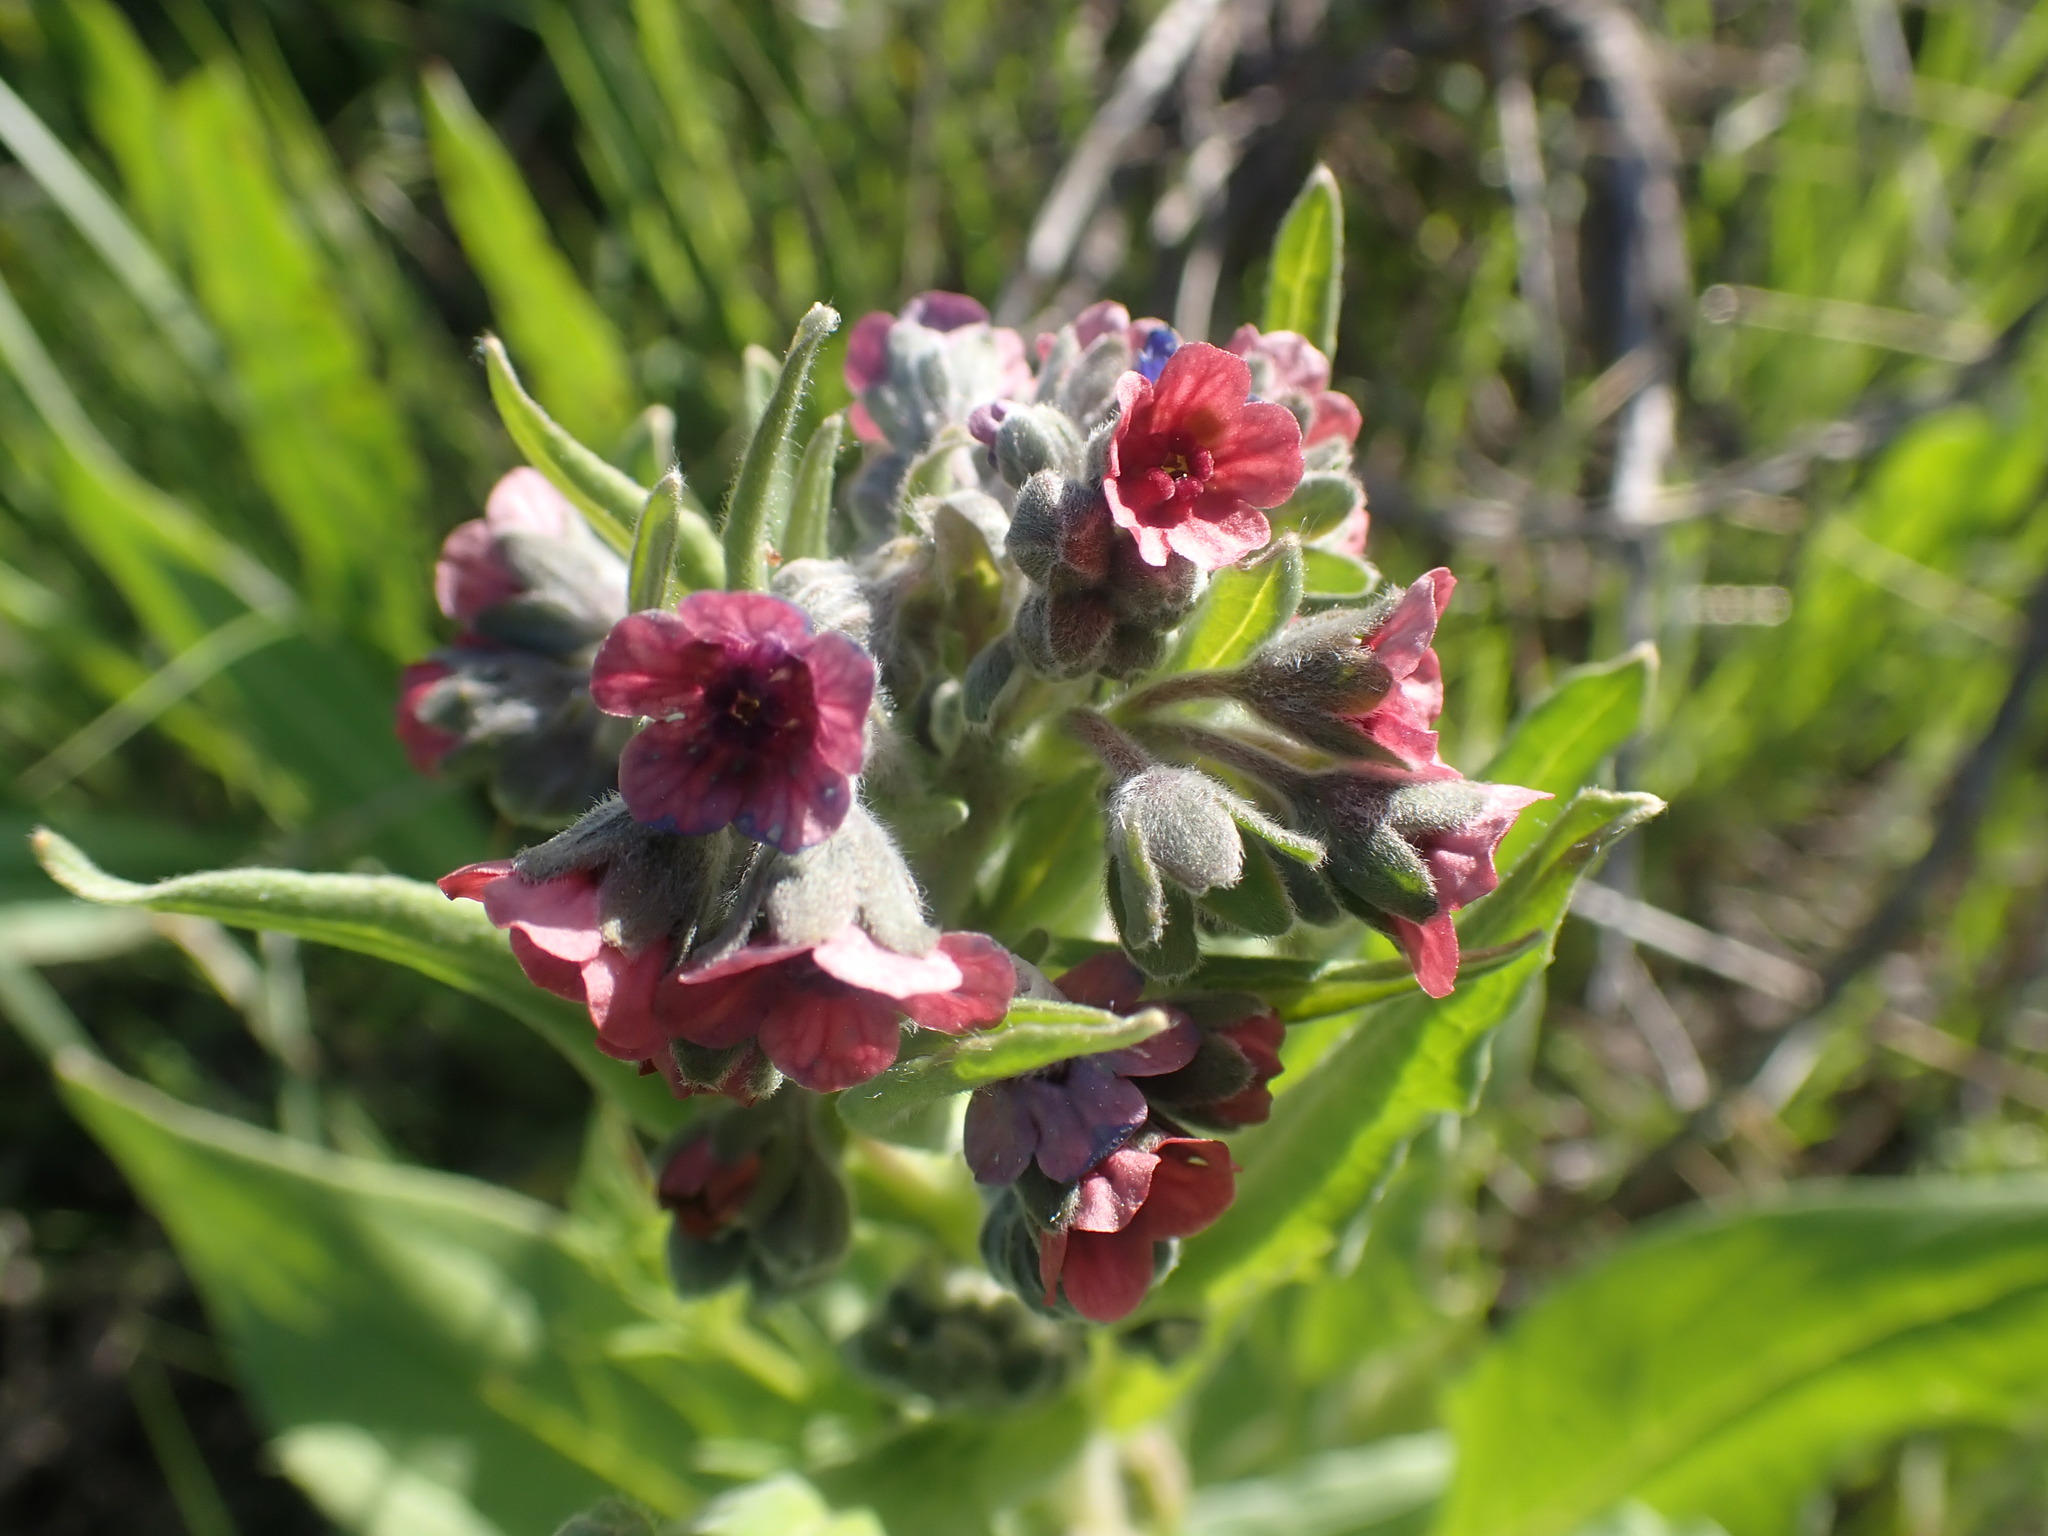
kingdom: Plantae
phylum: Tracheophyta
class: Magnoliopsida
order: Boraginales
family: Boraginaceae
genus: Cynoglossum
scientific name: Cynoglossum officinale
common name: Hound's-tongue
